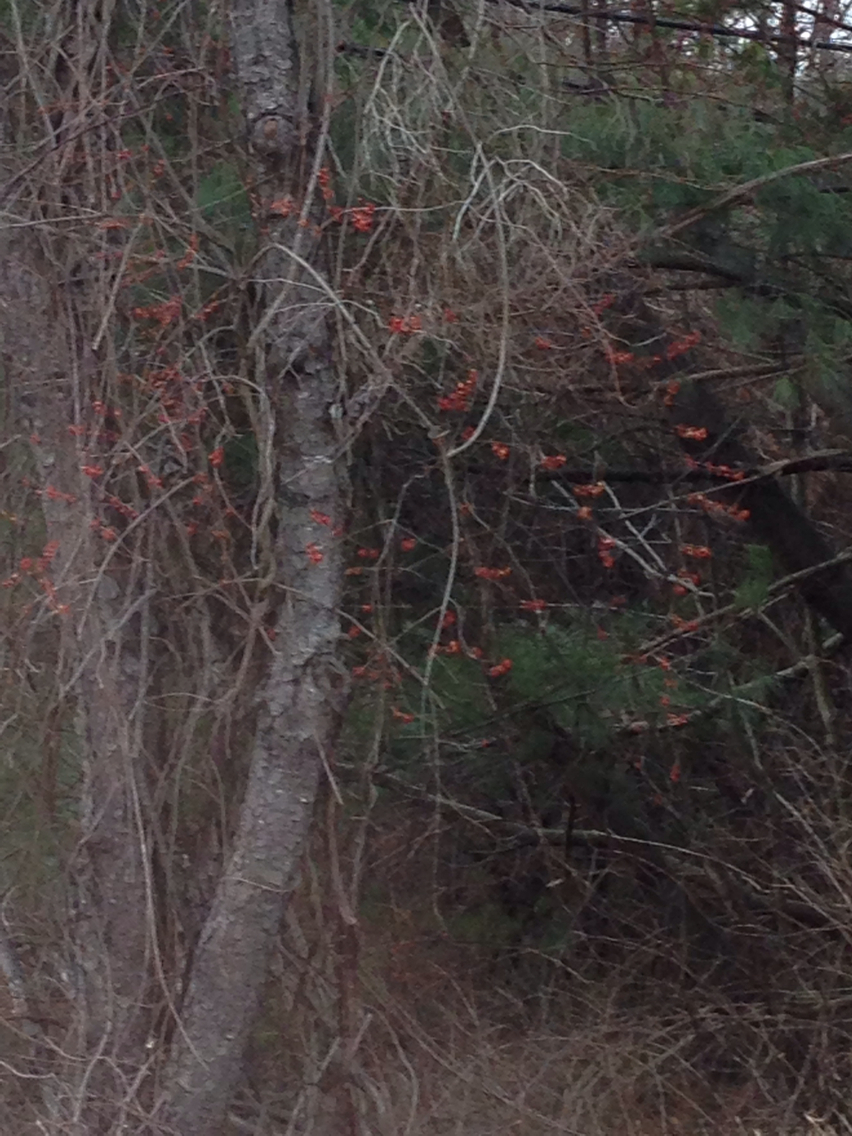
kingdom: Plantae
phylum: Tracheophyta
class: Magnoliopsida
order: Celastrales
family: Celastraceae
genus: Celastrus
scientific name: Celastrus orbiculatus
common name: Oriental bittersweet
